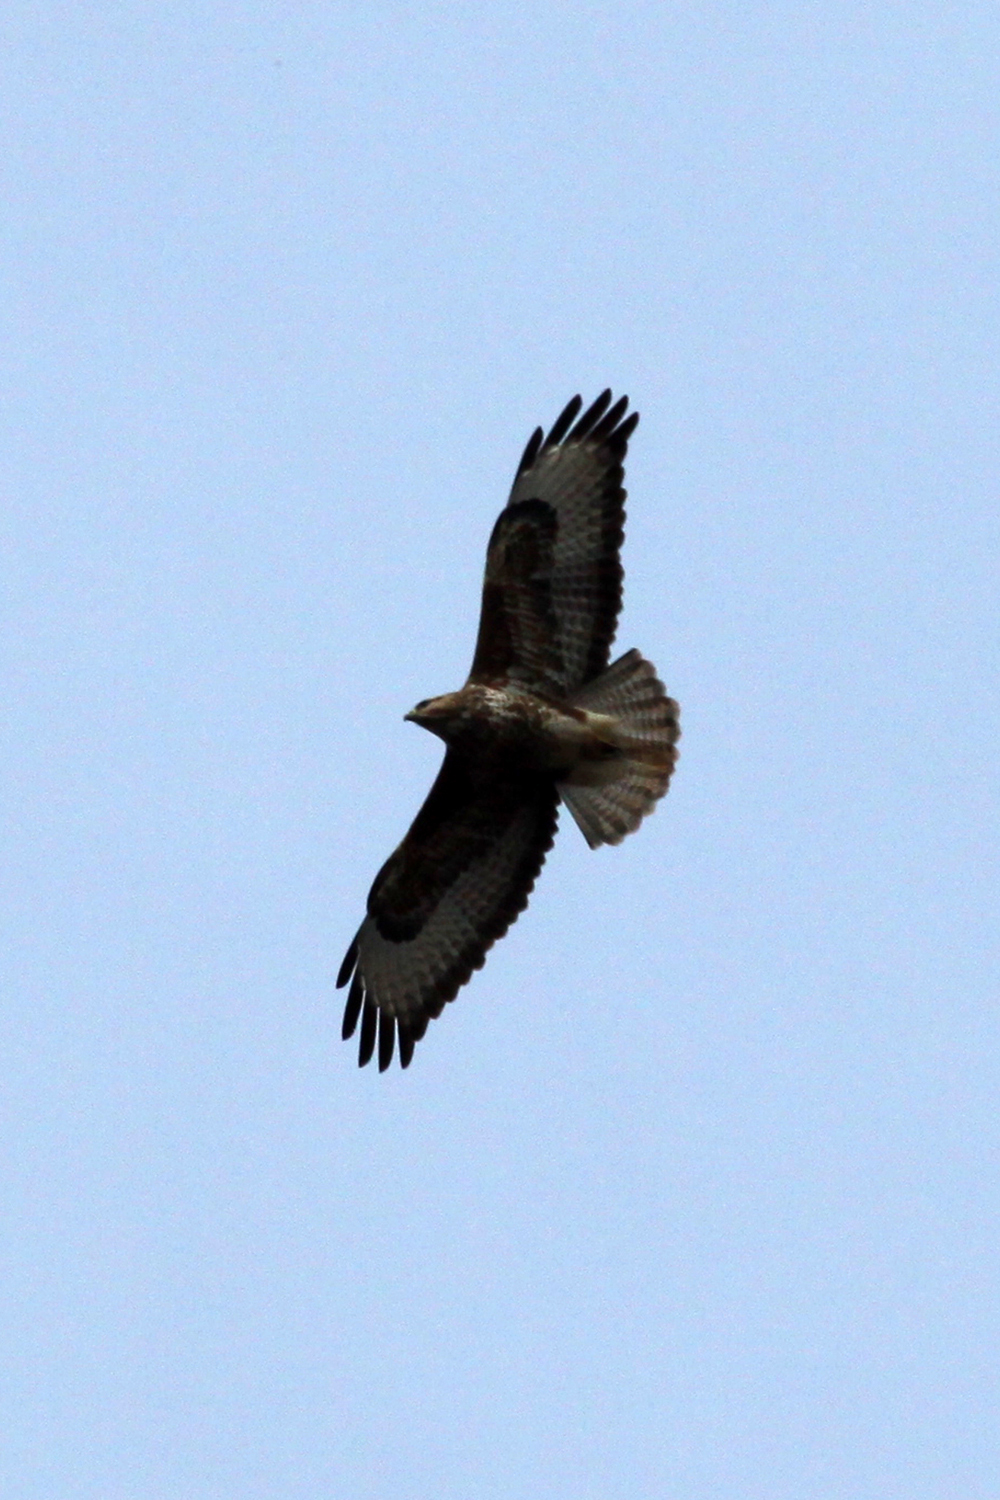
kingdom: Animalia
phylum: Chordata
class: Aves
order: Accipitriformes
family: Accipitridae
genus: Buteo
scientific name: Buteo buteo
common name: Common buzzard
